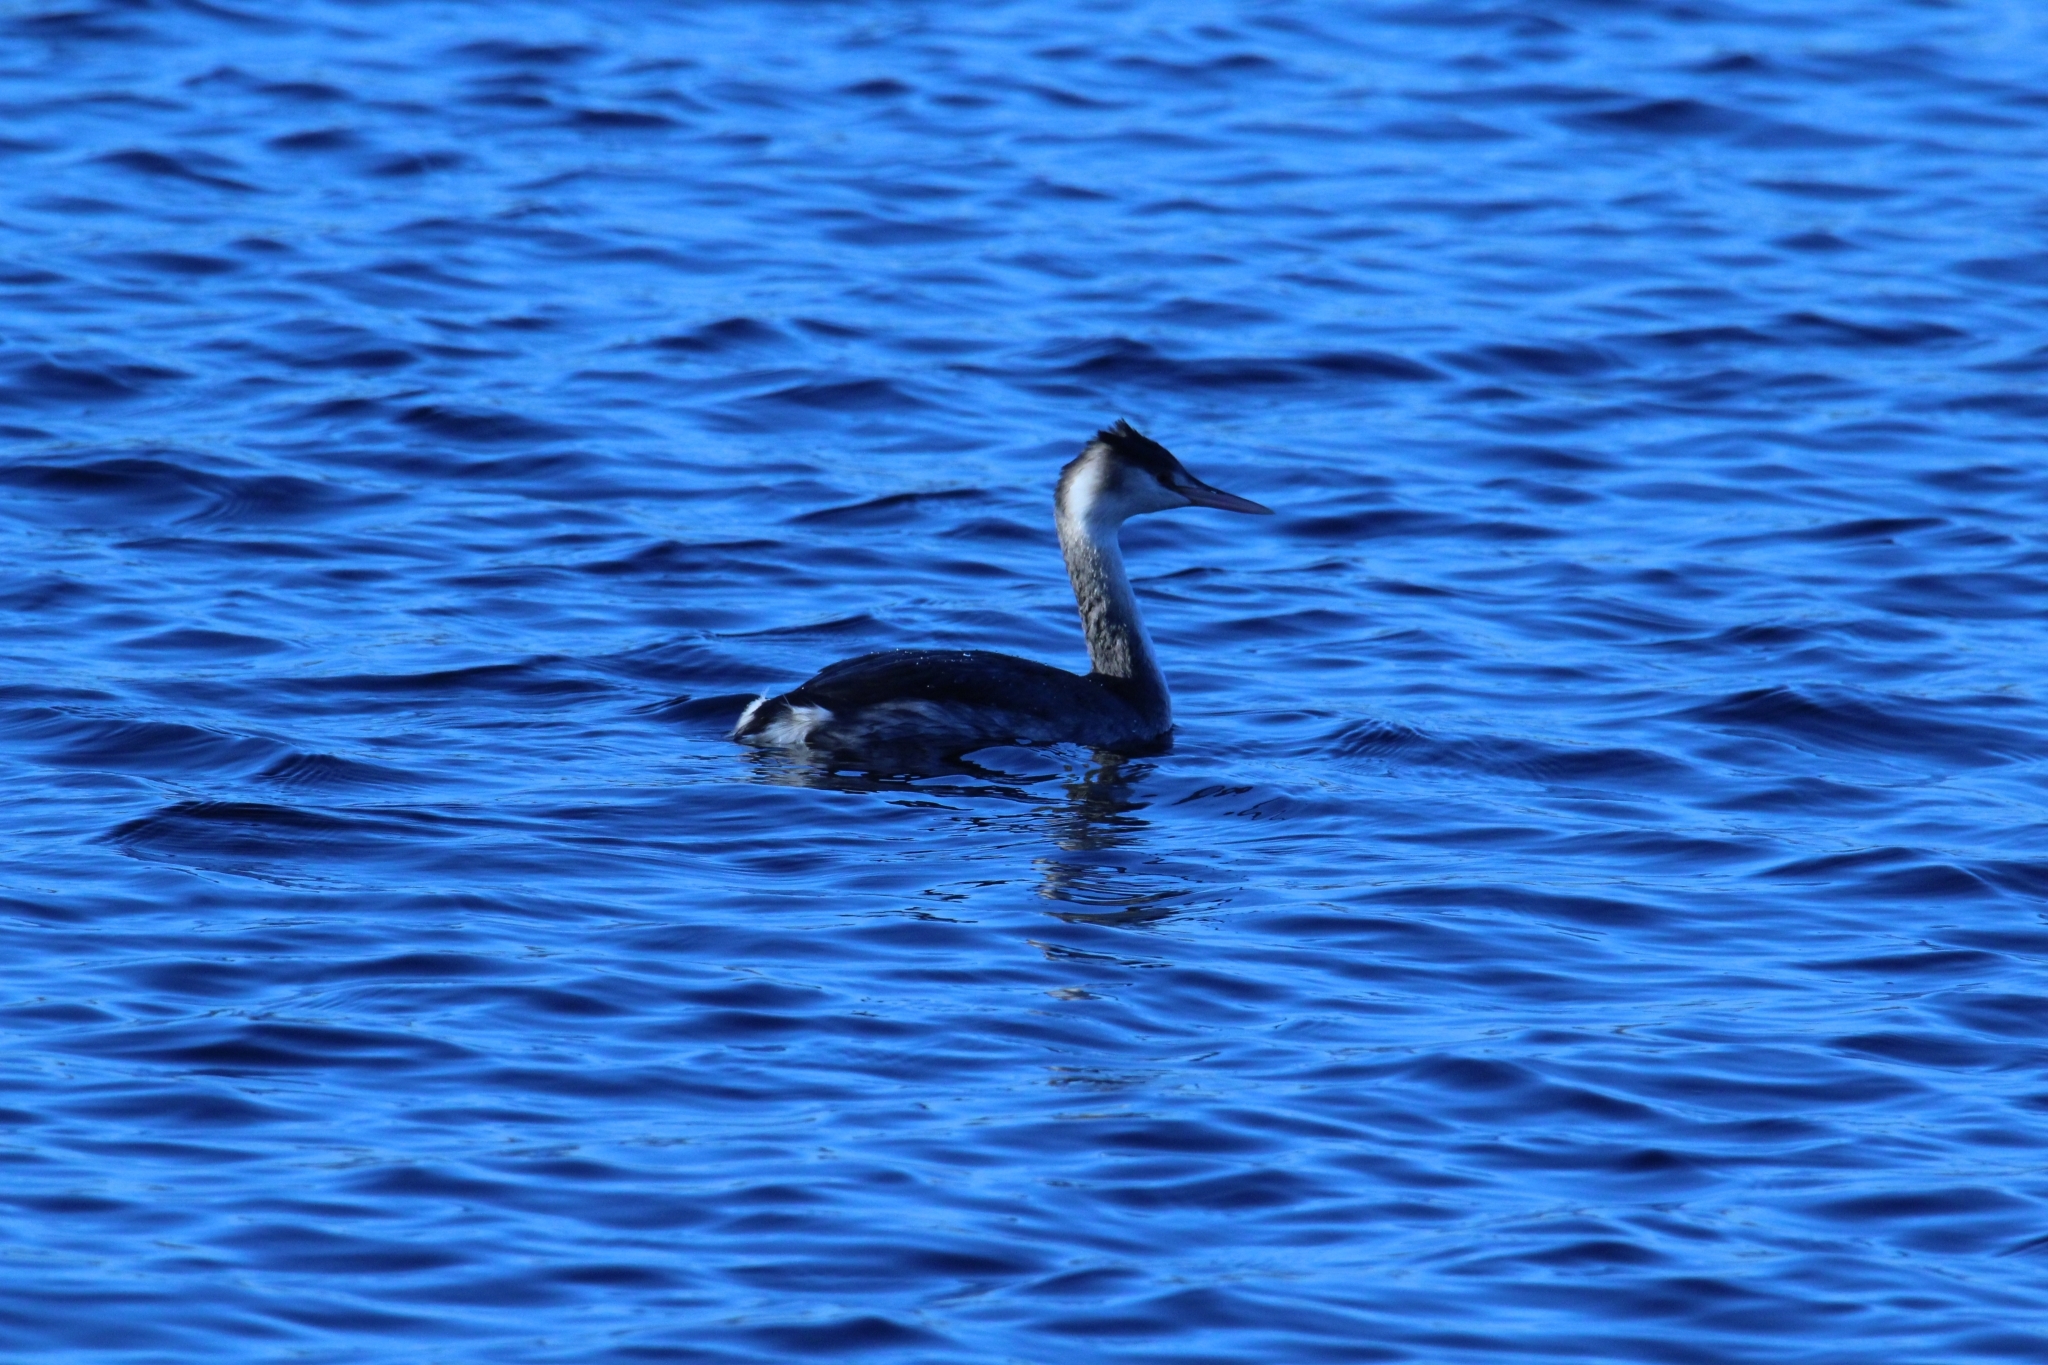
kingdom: Animalia
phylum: Chordata
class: Aves
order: Podicipediformes
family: Podicipedidae
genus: Podiceps
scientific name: Podiceps cristatus
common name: Great crested grebe
